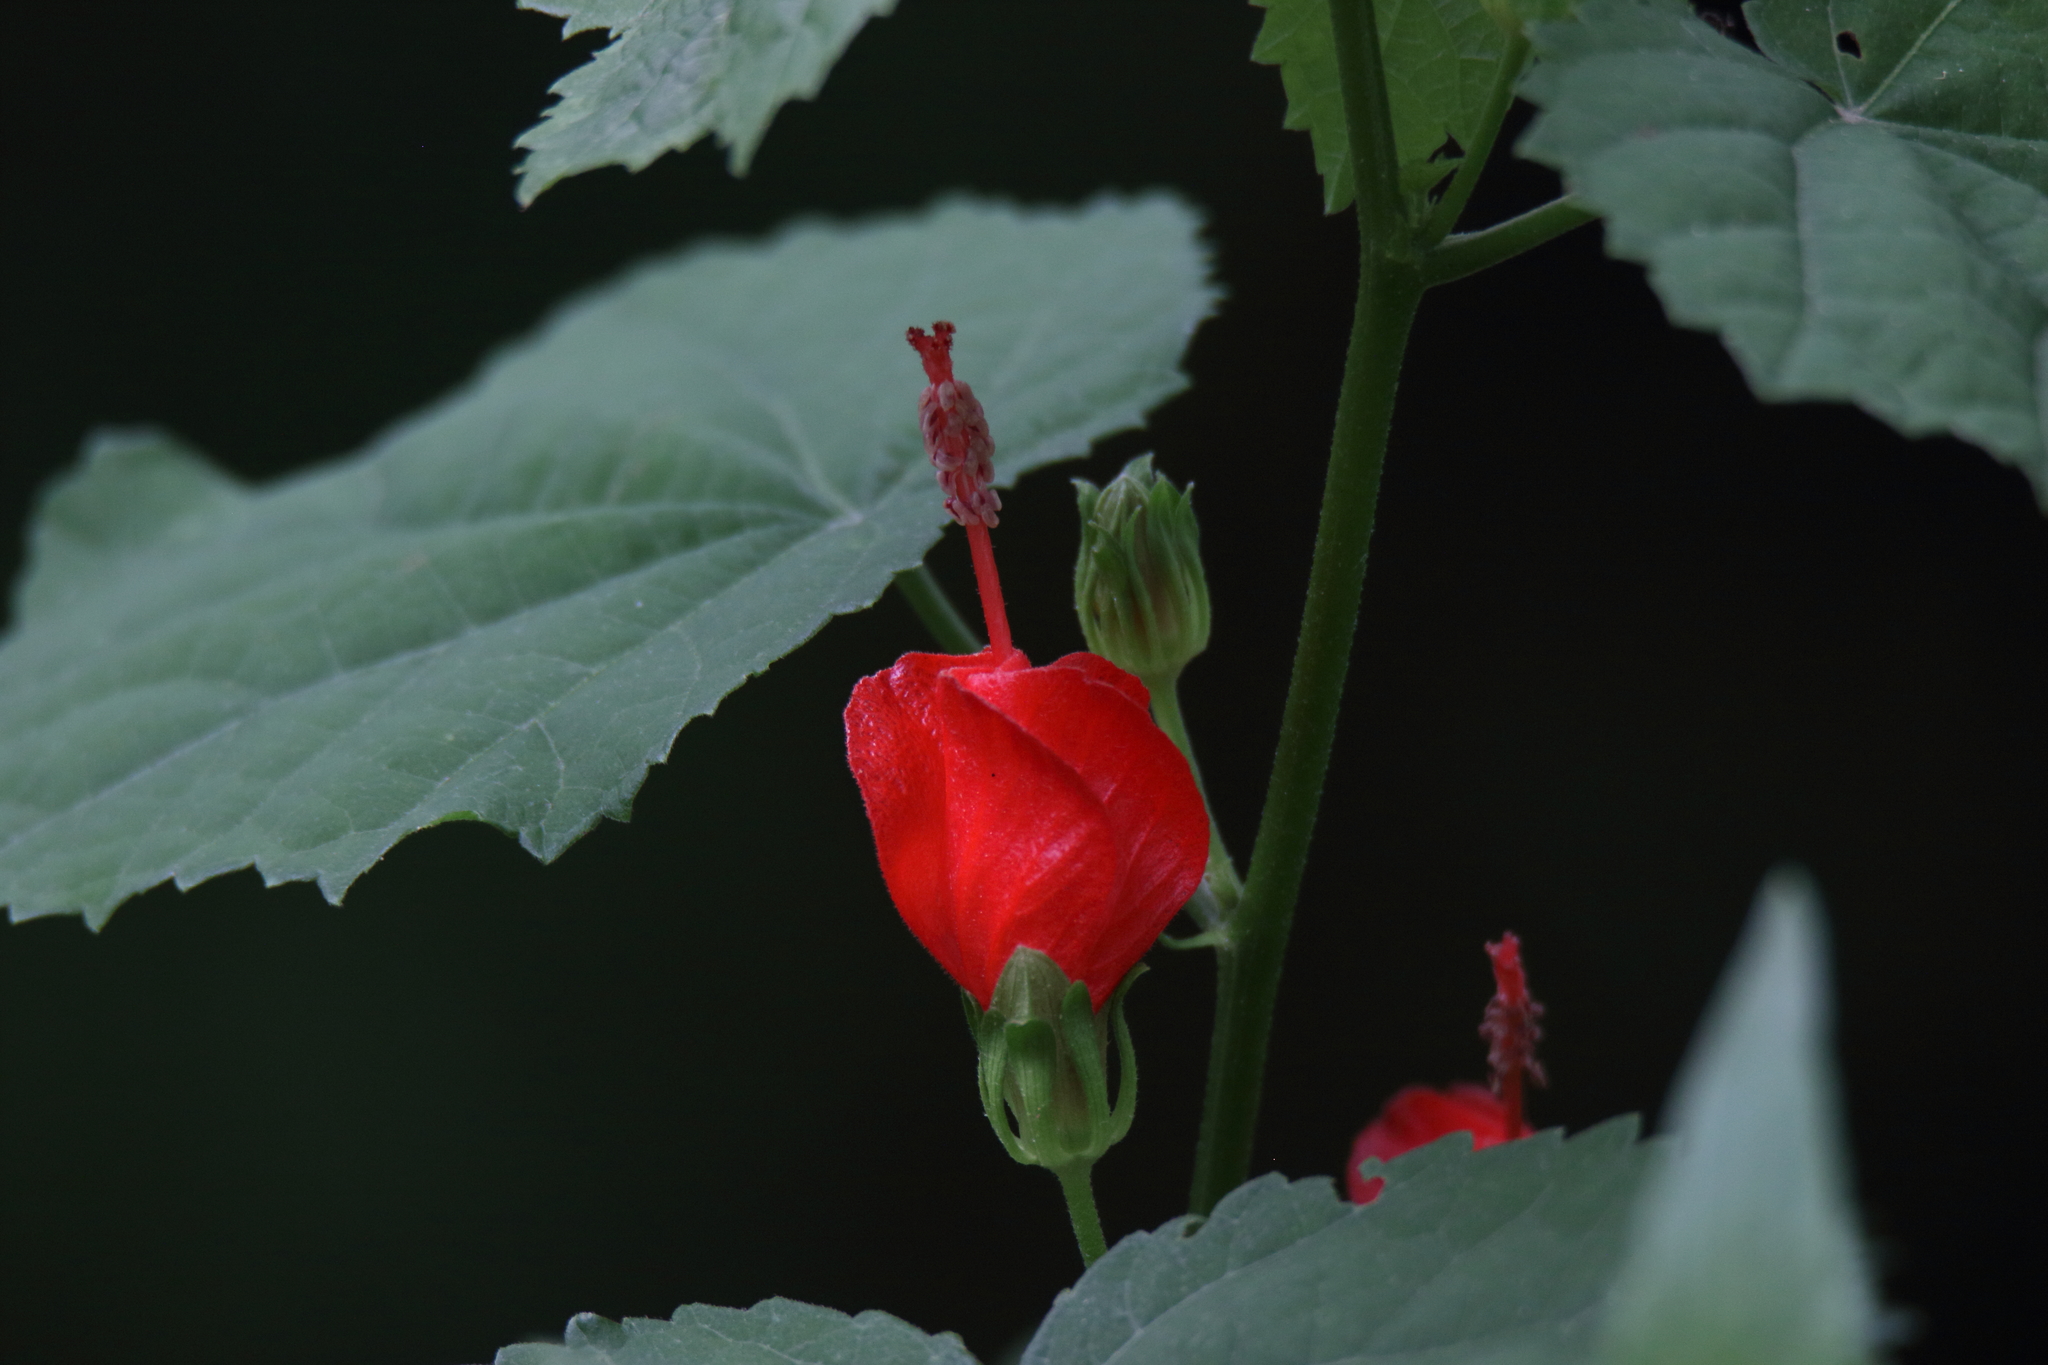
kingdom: Plantae
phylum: Tracheophyta
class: Magnoliopsida
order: Malvales
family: Malvaceae
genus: Malvaviscus
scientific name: Malvaviscus arboreus
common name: Wax mallow
